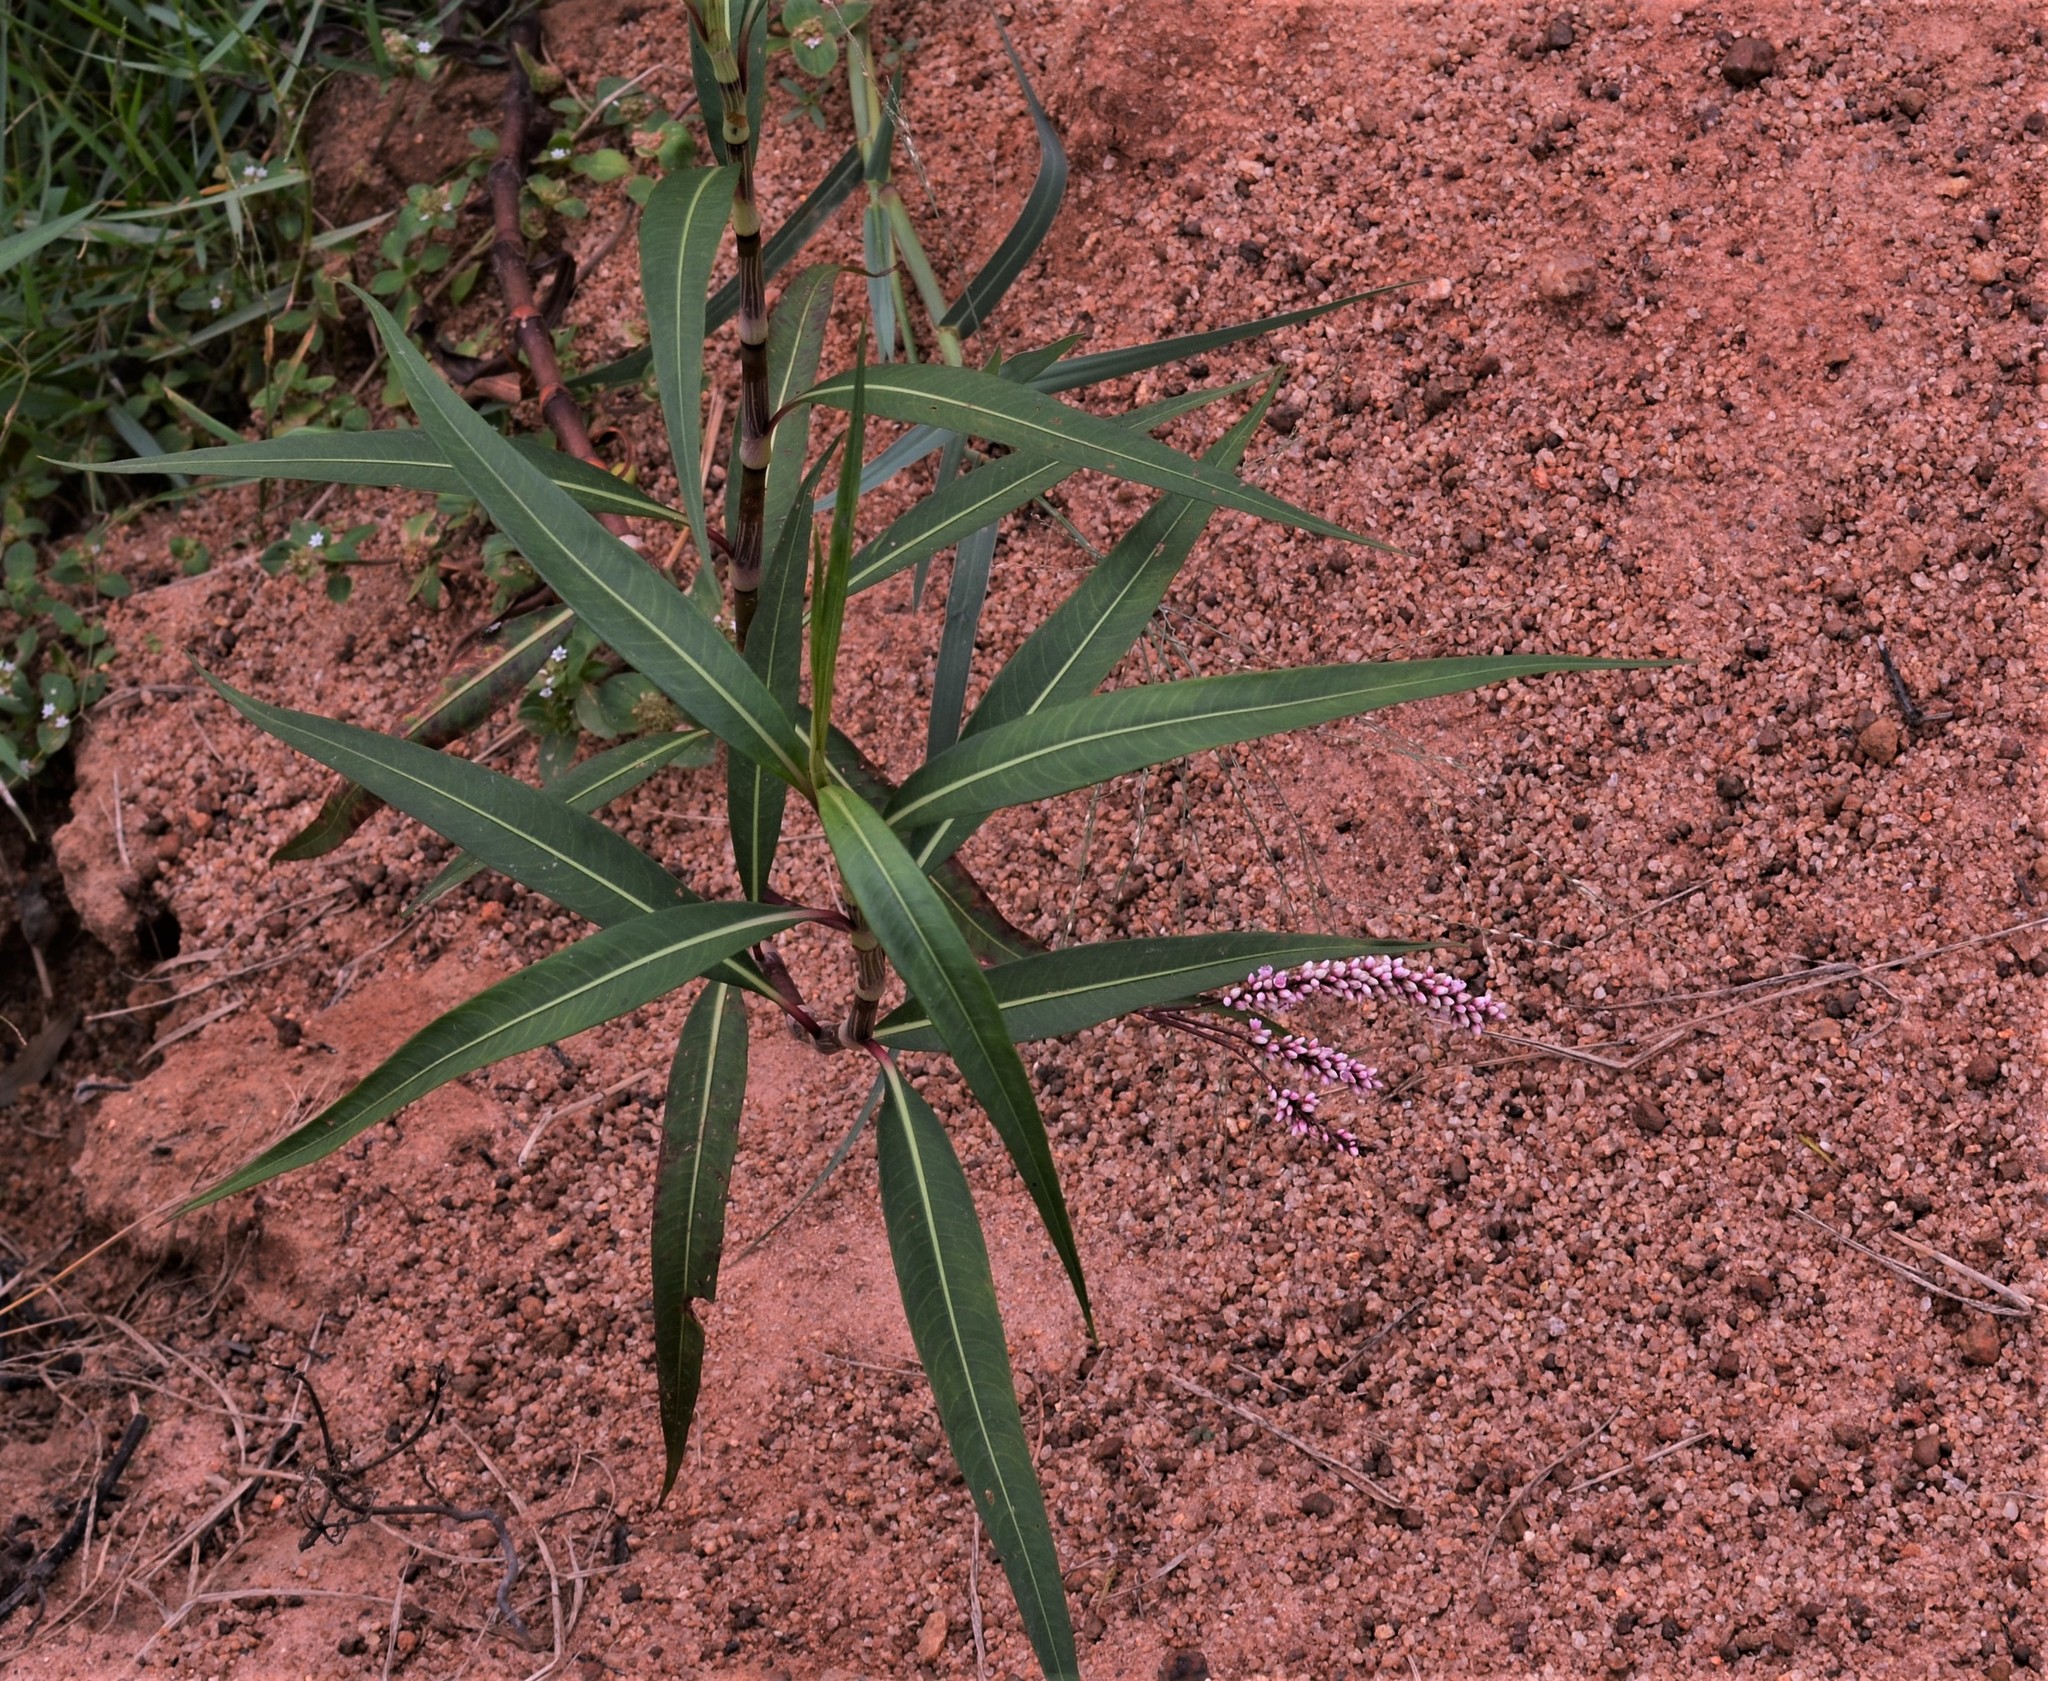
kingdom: Plantae
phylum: Tracheophyta
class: Magnoliopsida
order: Caryophyllales
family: Polygonaceae
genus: Persicaria
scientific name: Persicaria lapathifolia
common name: Curlytop knotweed
